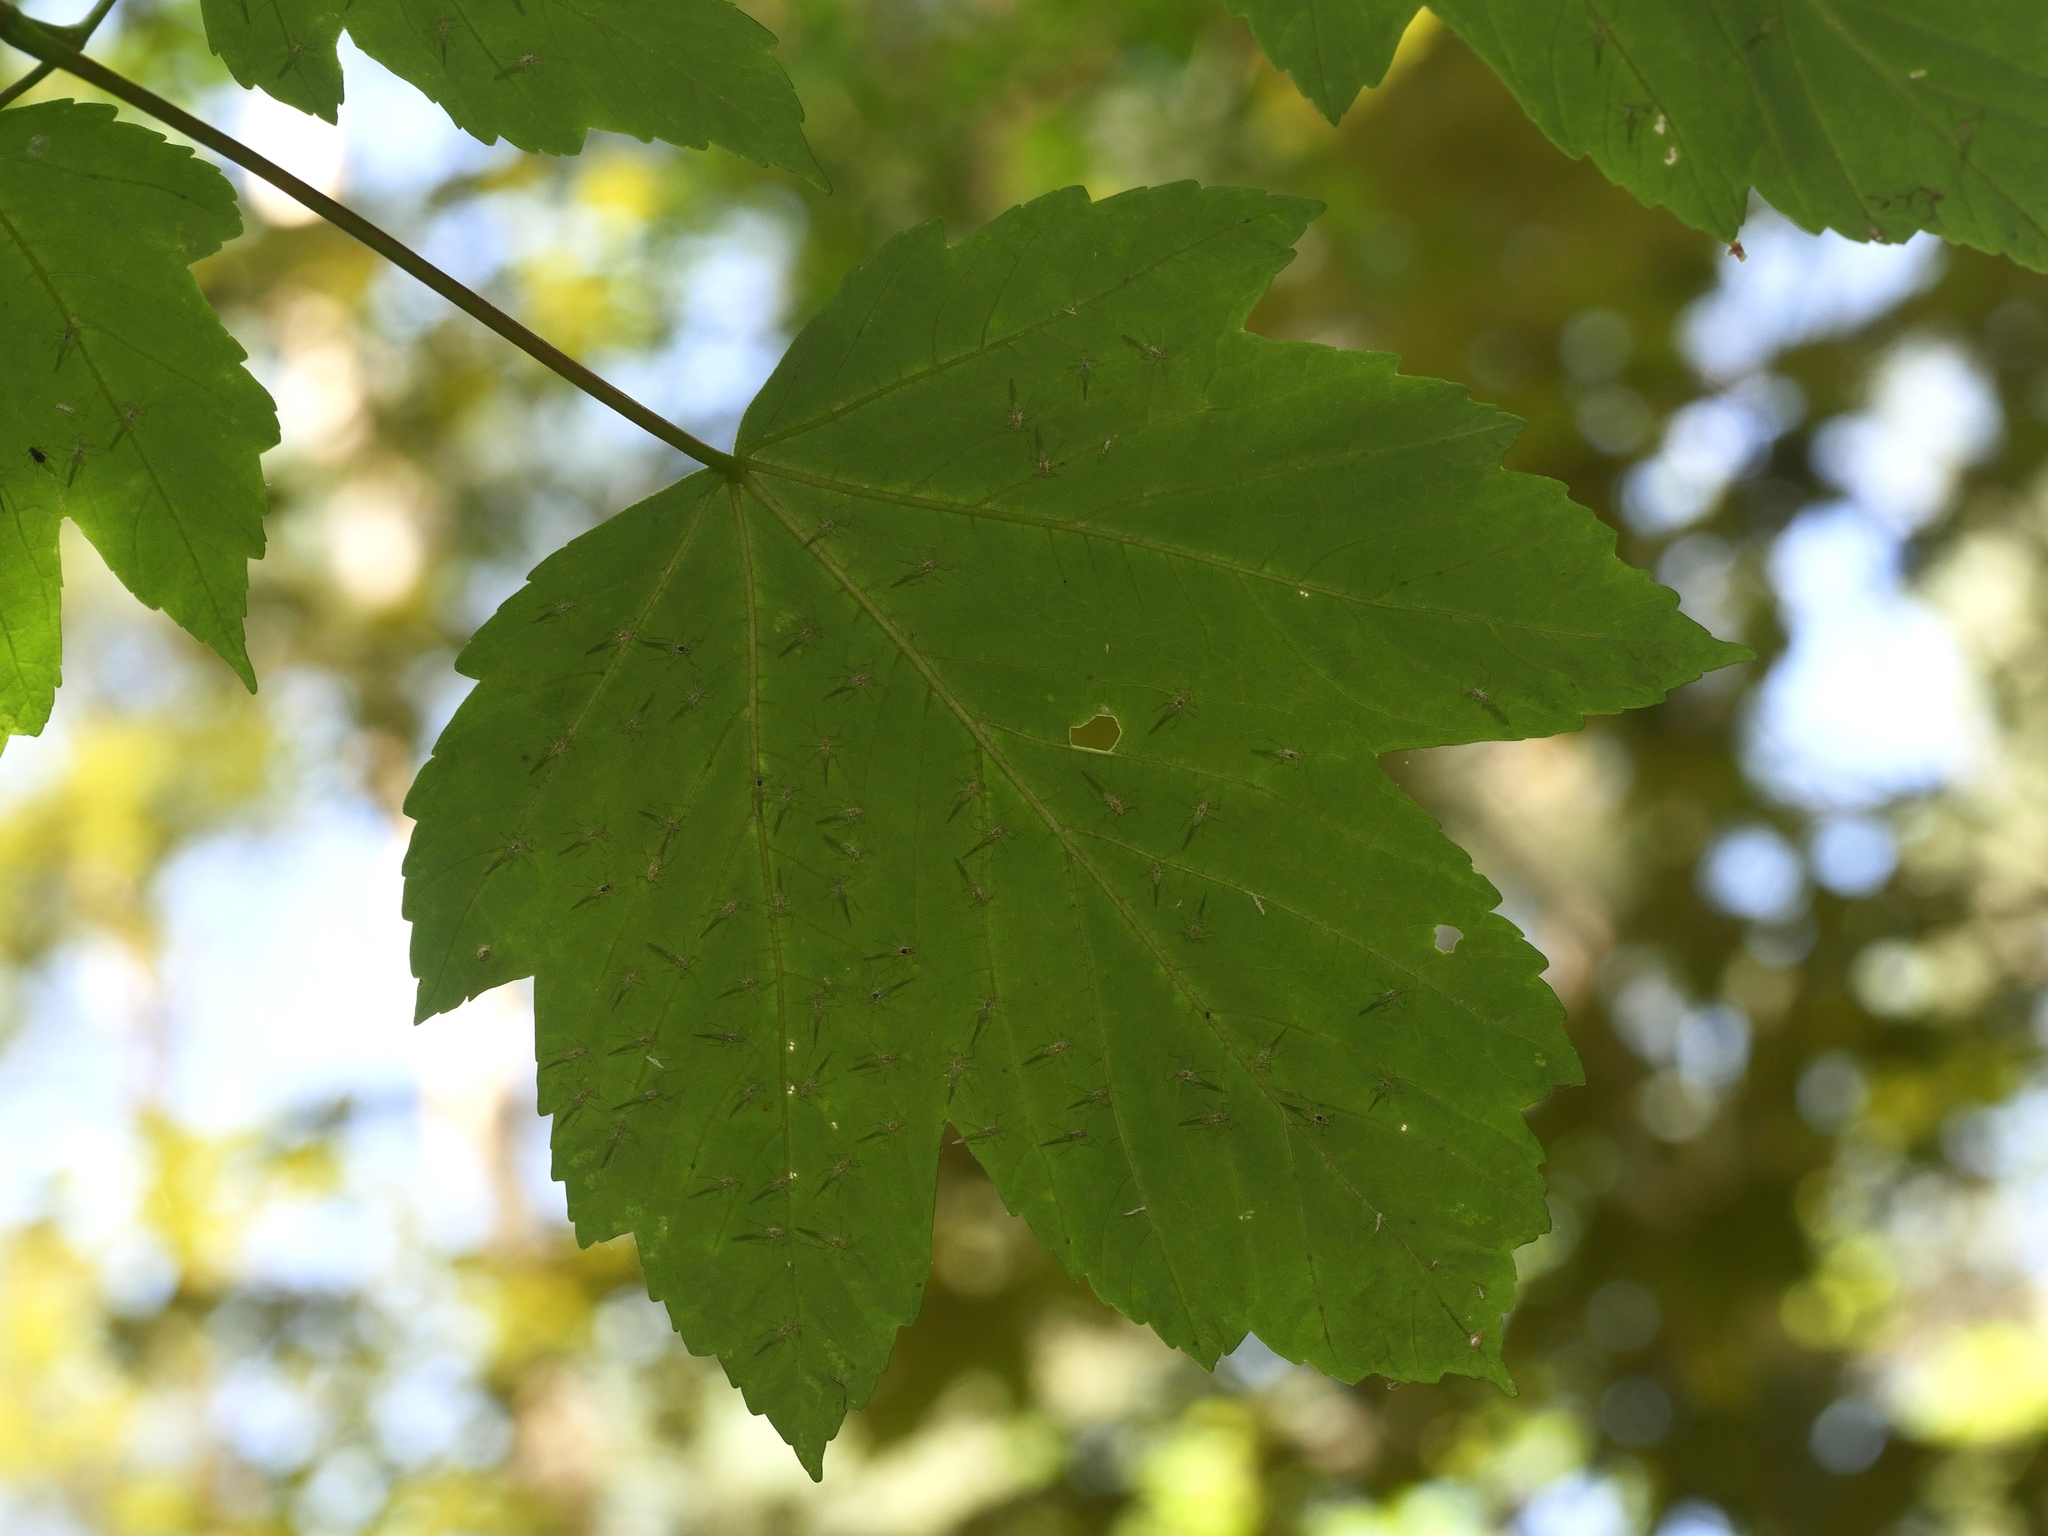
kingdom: Plantae
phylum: Tracheophyta
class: Magnoliopsida
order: Sapindales
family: Sapindaceae
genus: Acer
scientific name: Acer pseudoplatanus
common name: Sycamore
